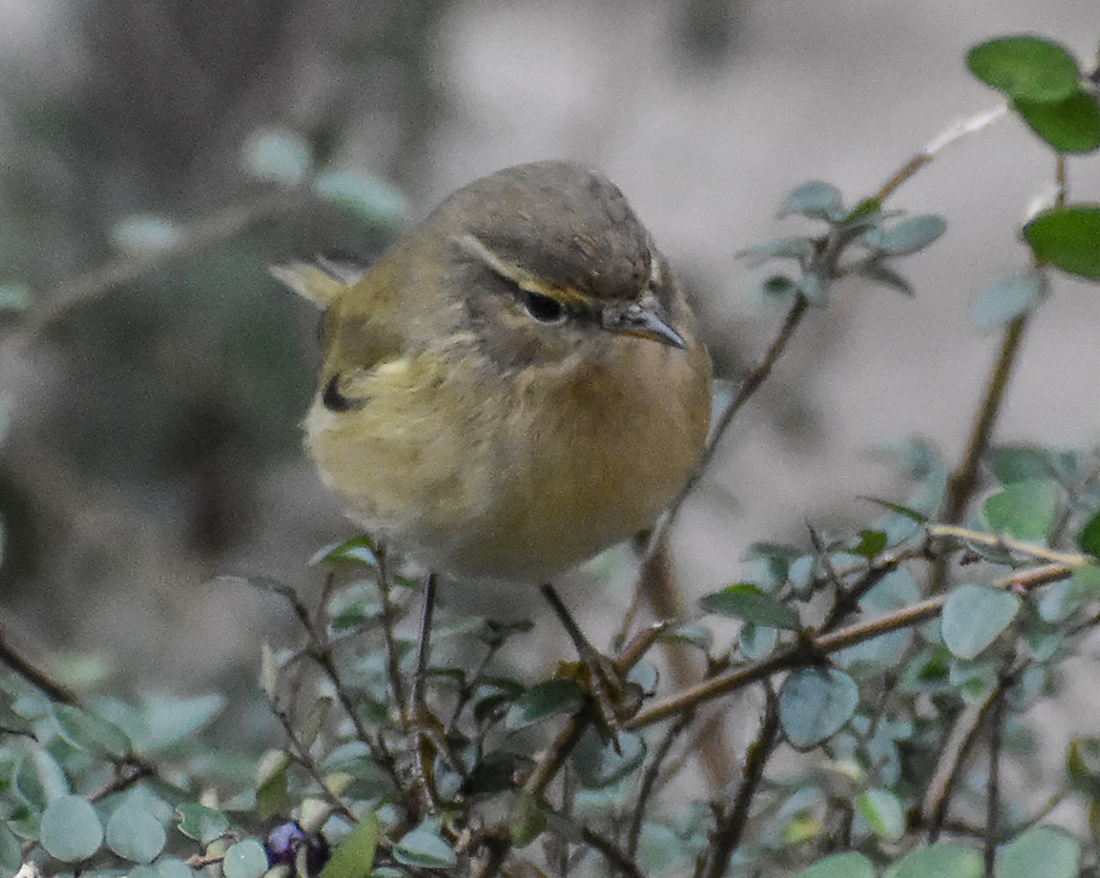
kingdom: Animalia
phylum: Chordata
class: Aves
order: Passeriformes
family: Phylloscopidae
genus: Phylloscopus
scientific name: Phylloscopus collybita
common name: Common chiffchaff
